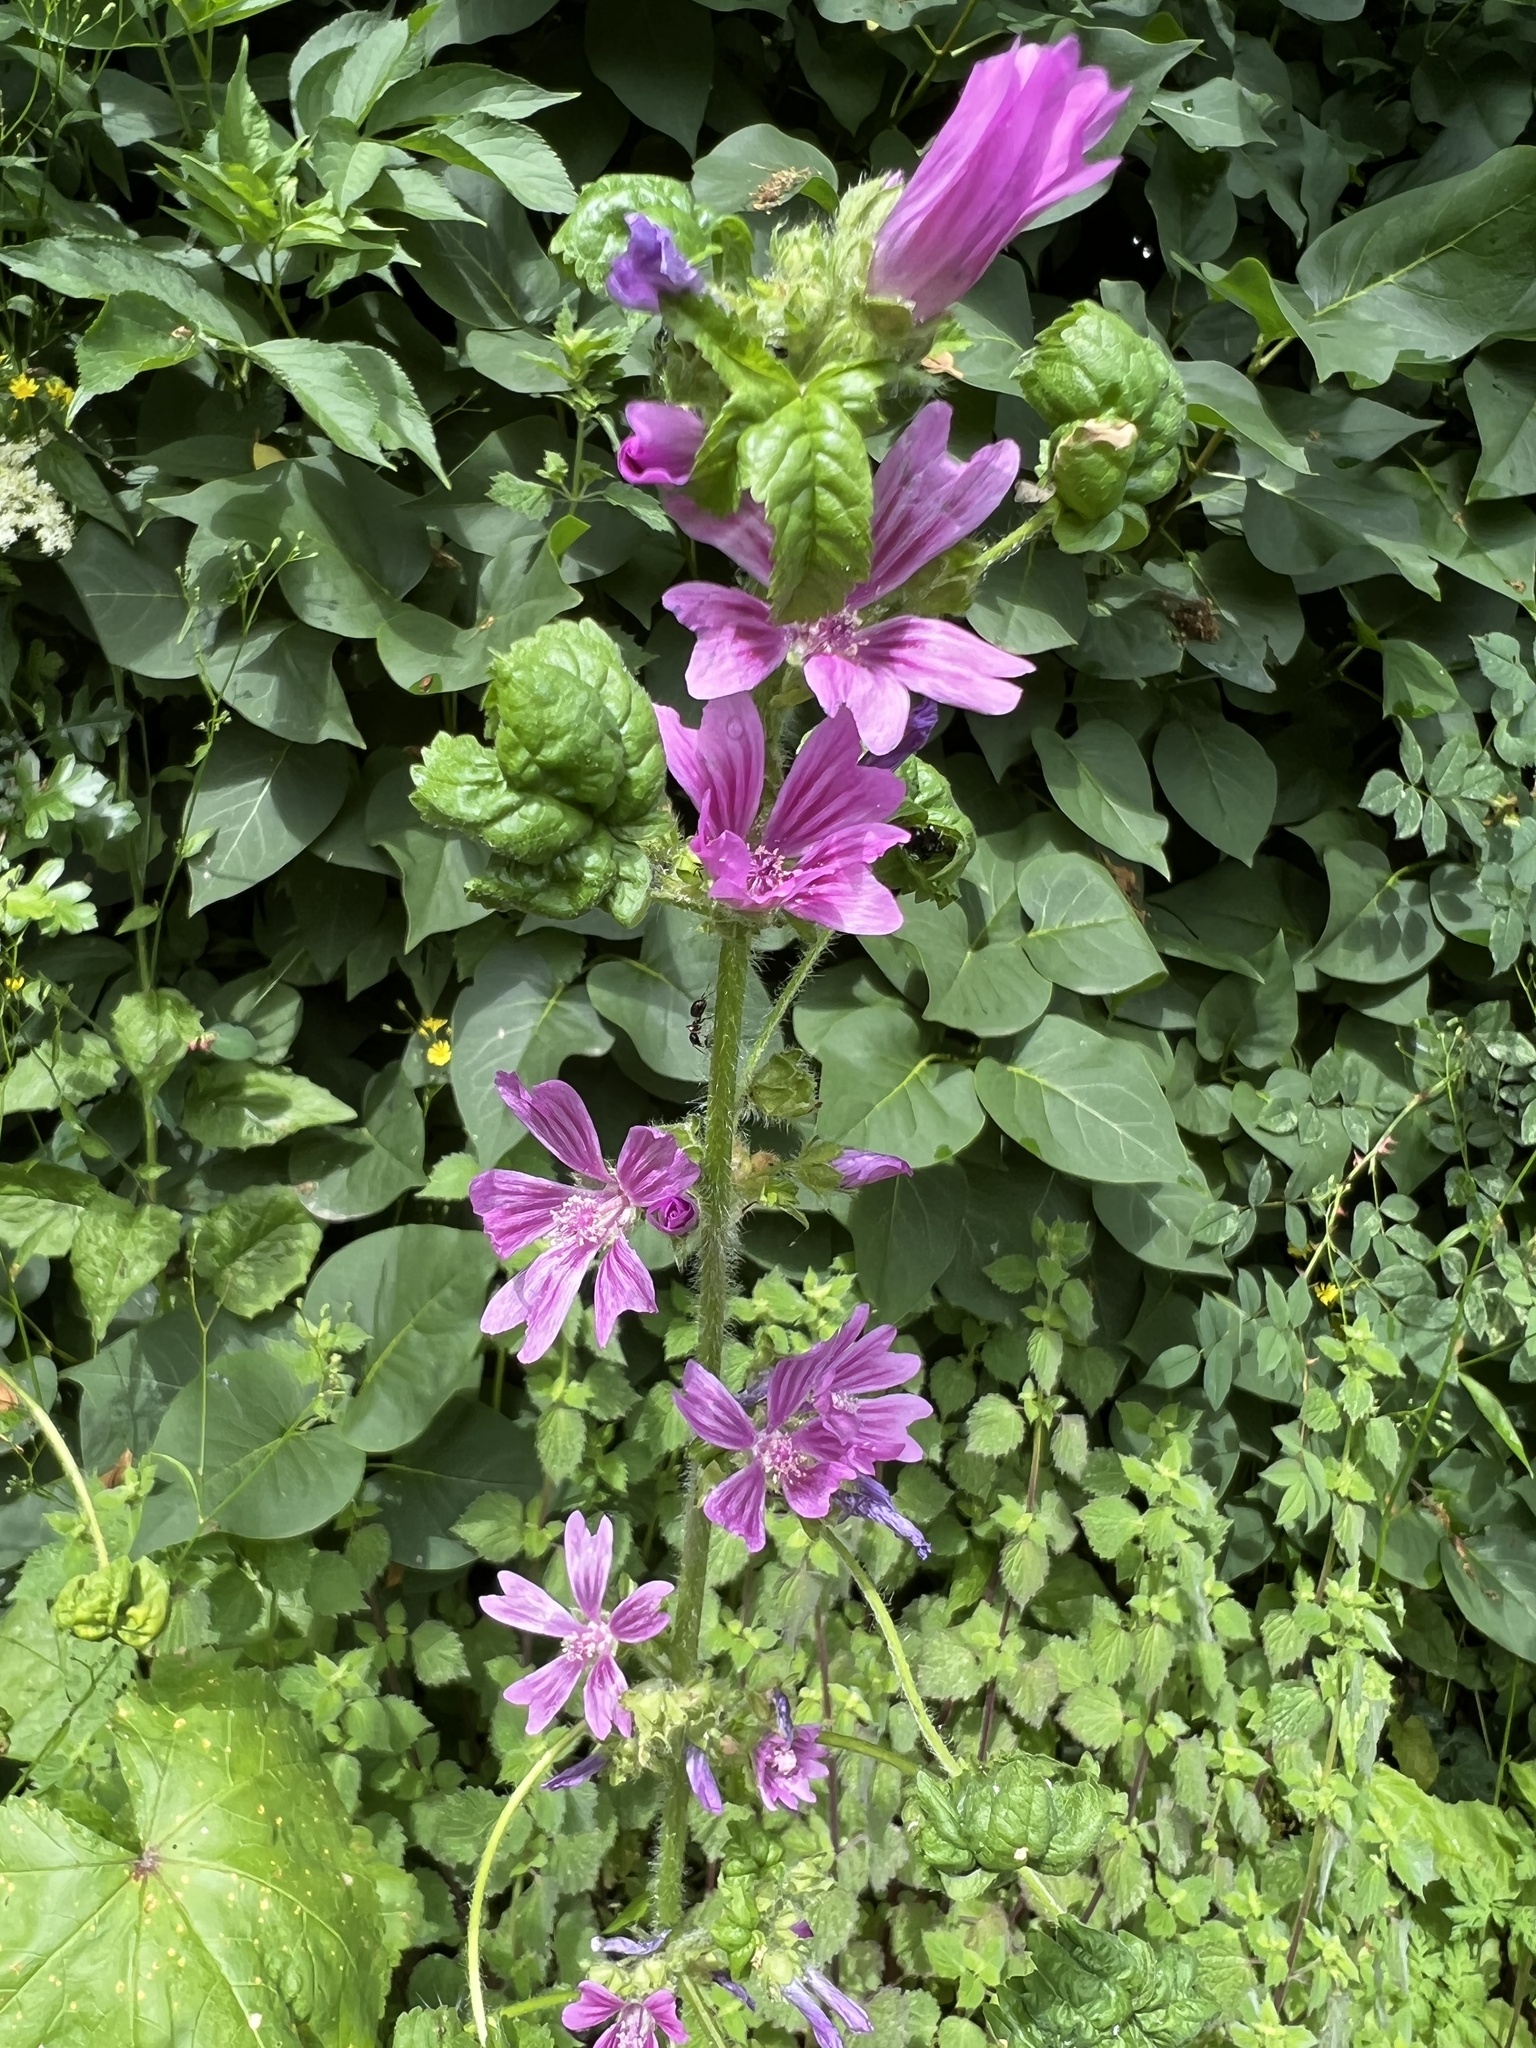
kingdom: Plantae
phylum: Tracheophyta
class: Magnoliopsida
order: Malvales
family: Malvaceae
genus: Malva
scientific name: Malva sylvestris
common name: Common mallow
